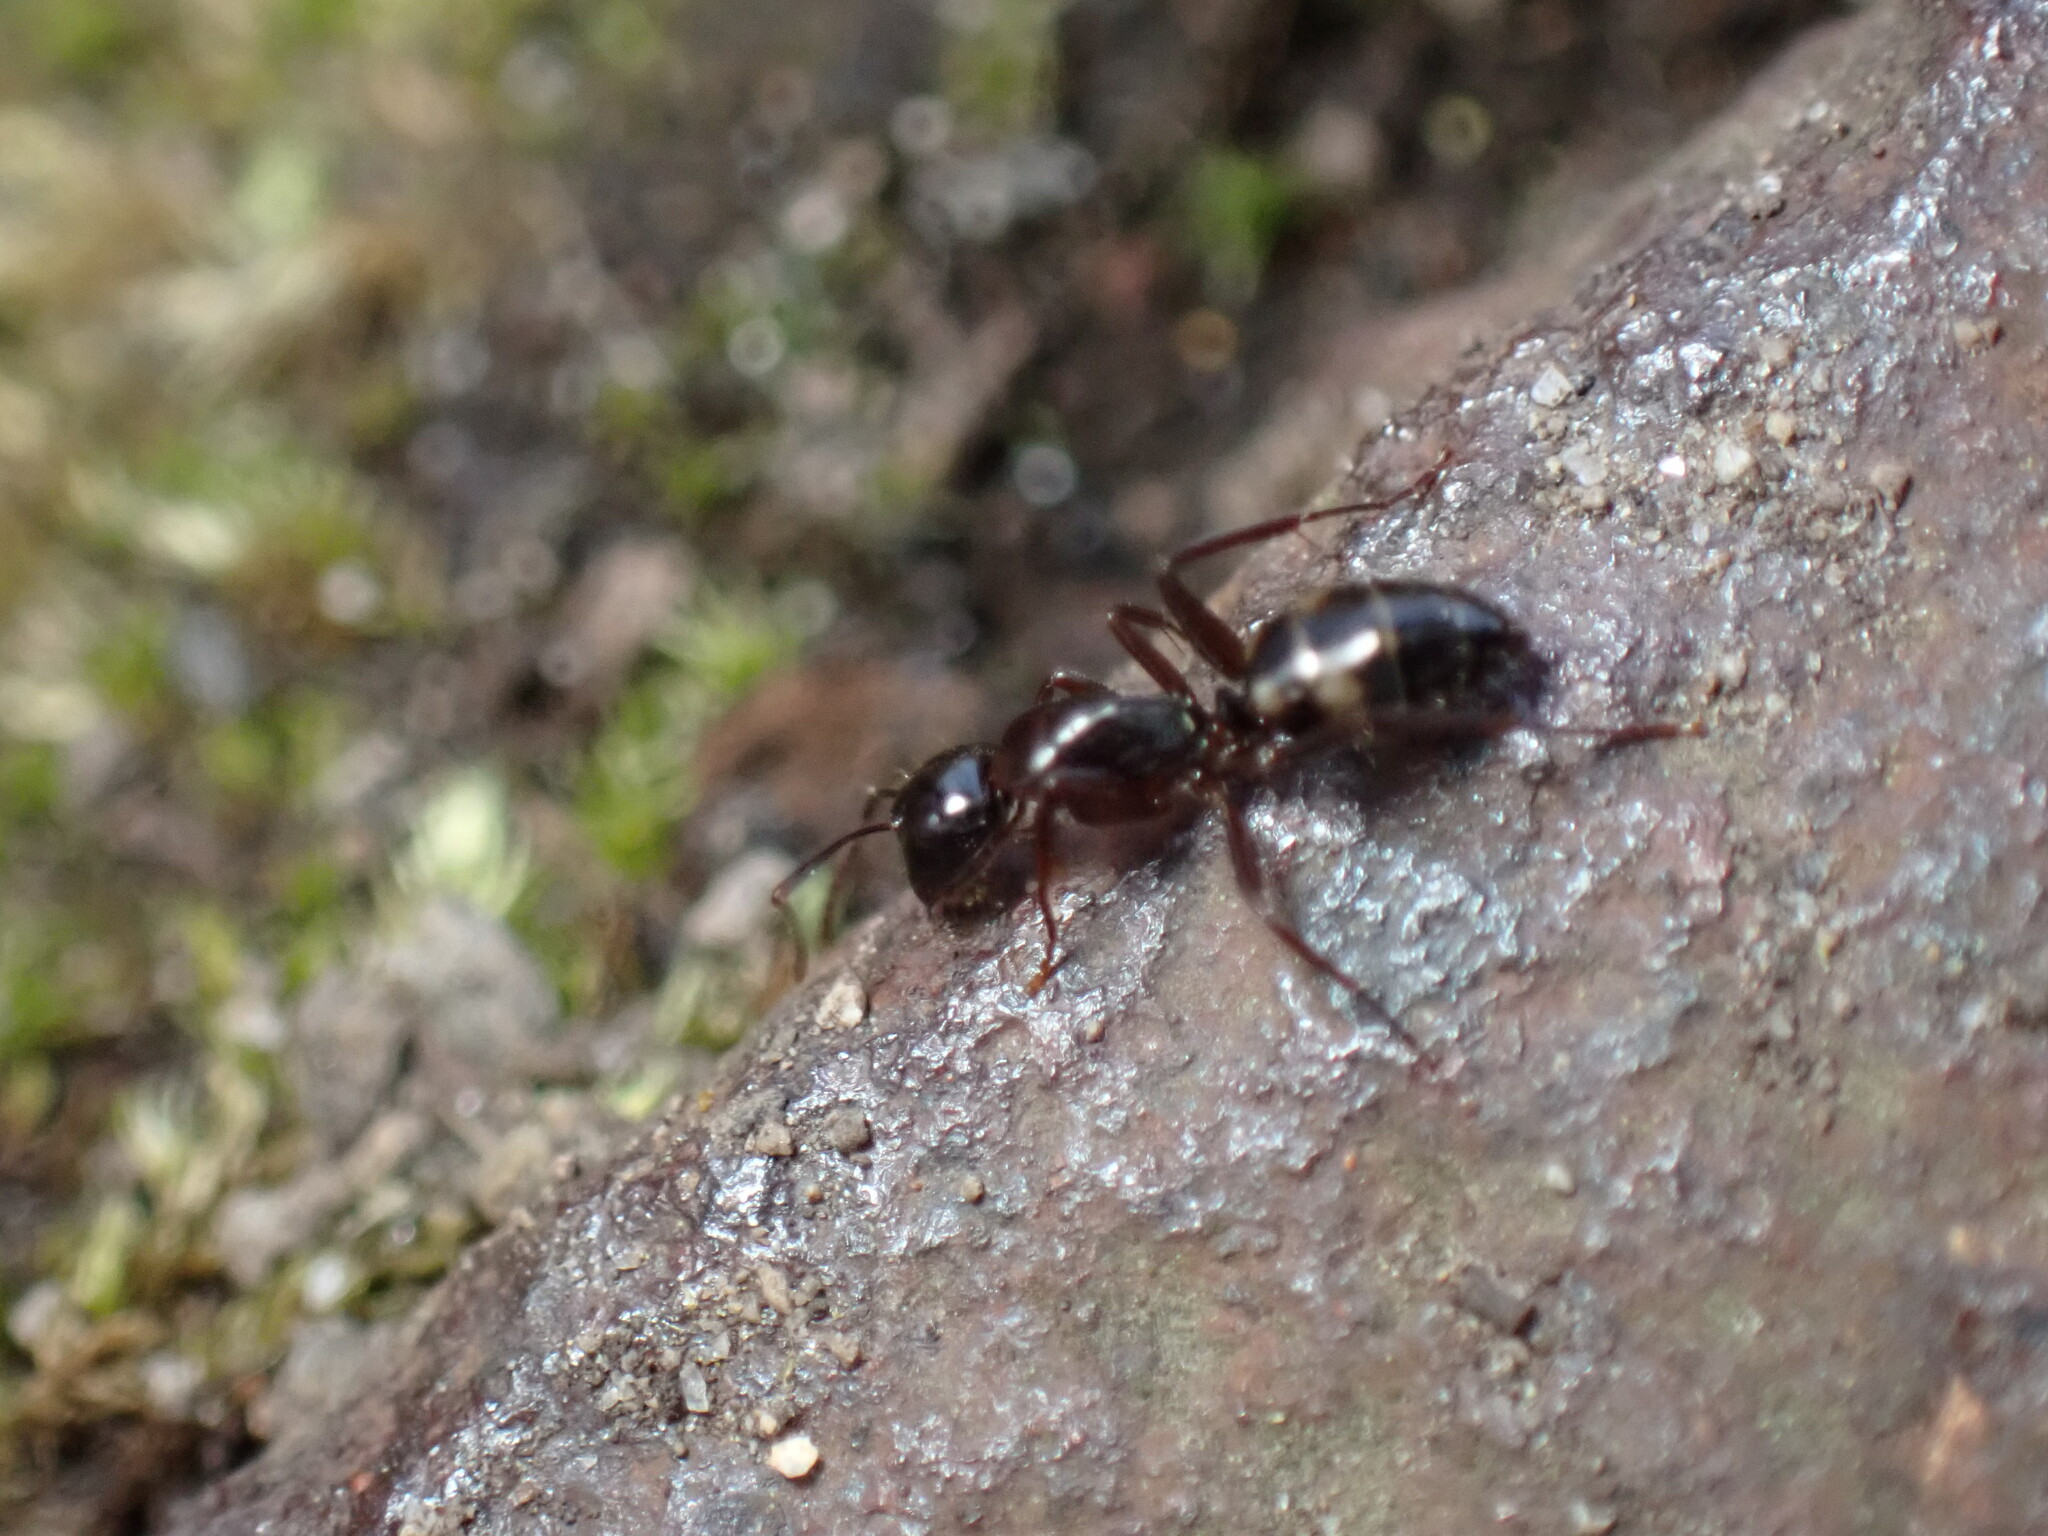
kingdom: Animalia
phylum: Arthropoda
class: Insecta
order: Hymenoptera
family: Formicidae
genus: Camponotus
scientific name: Camponotus quadrinotatus
